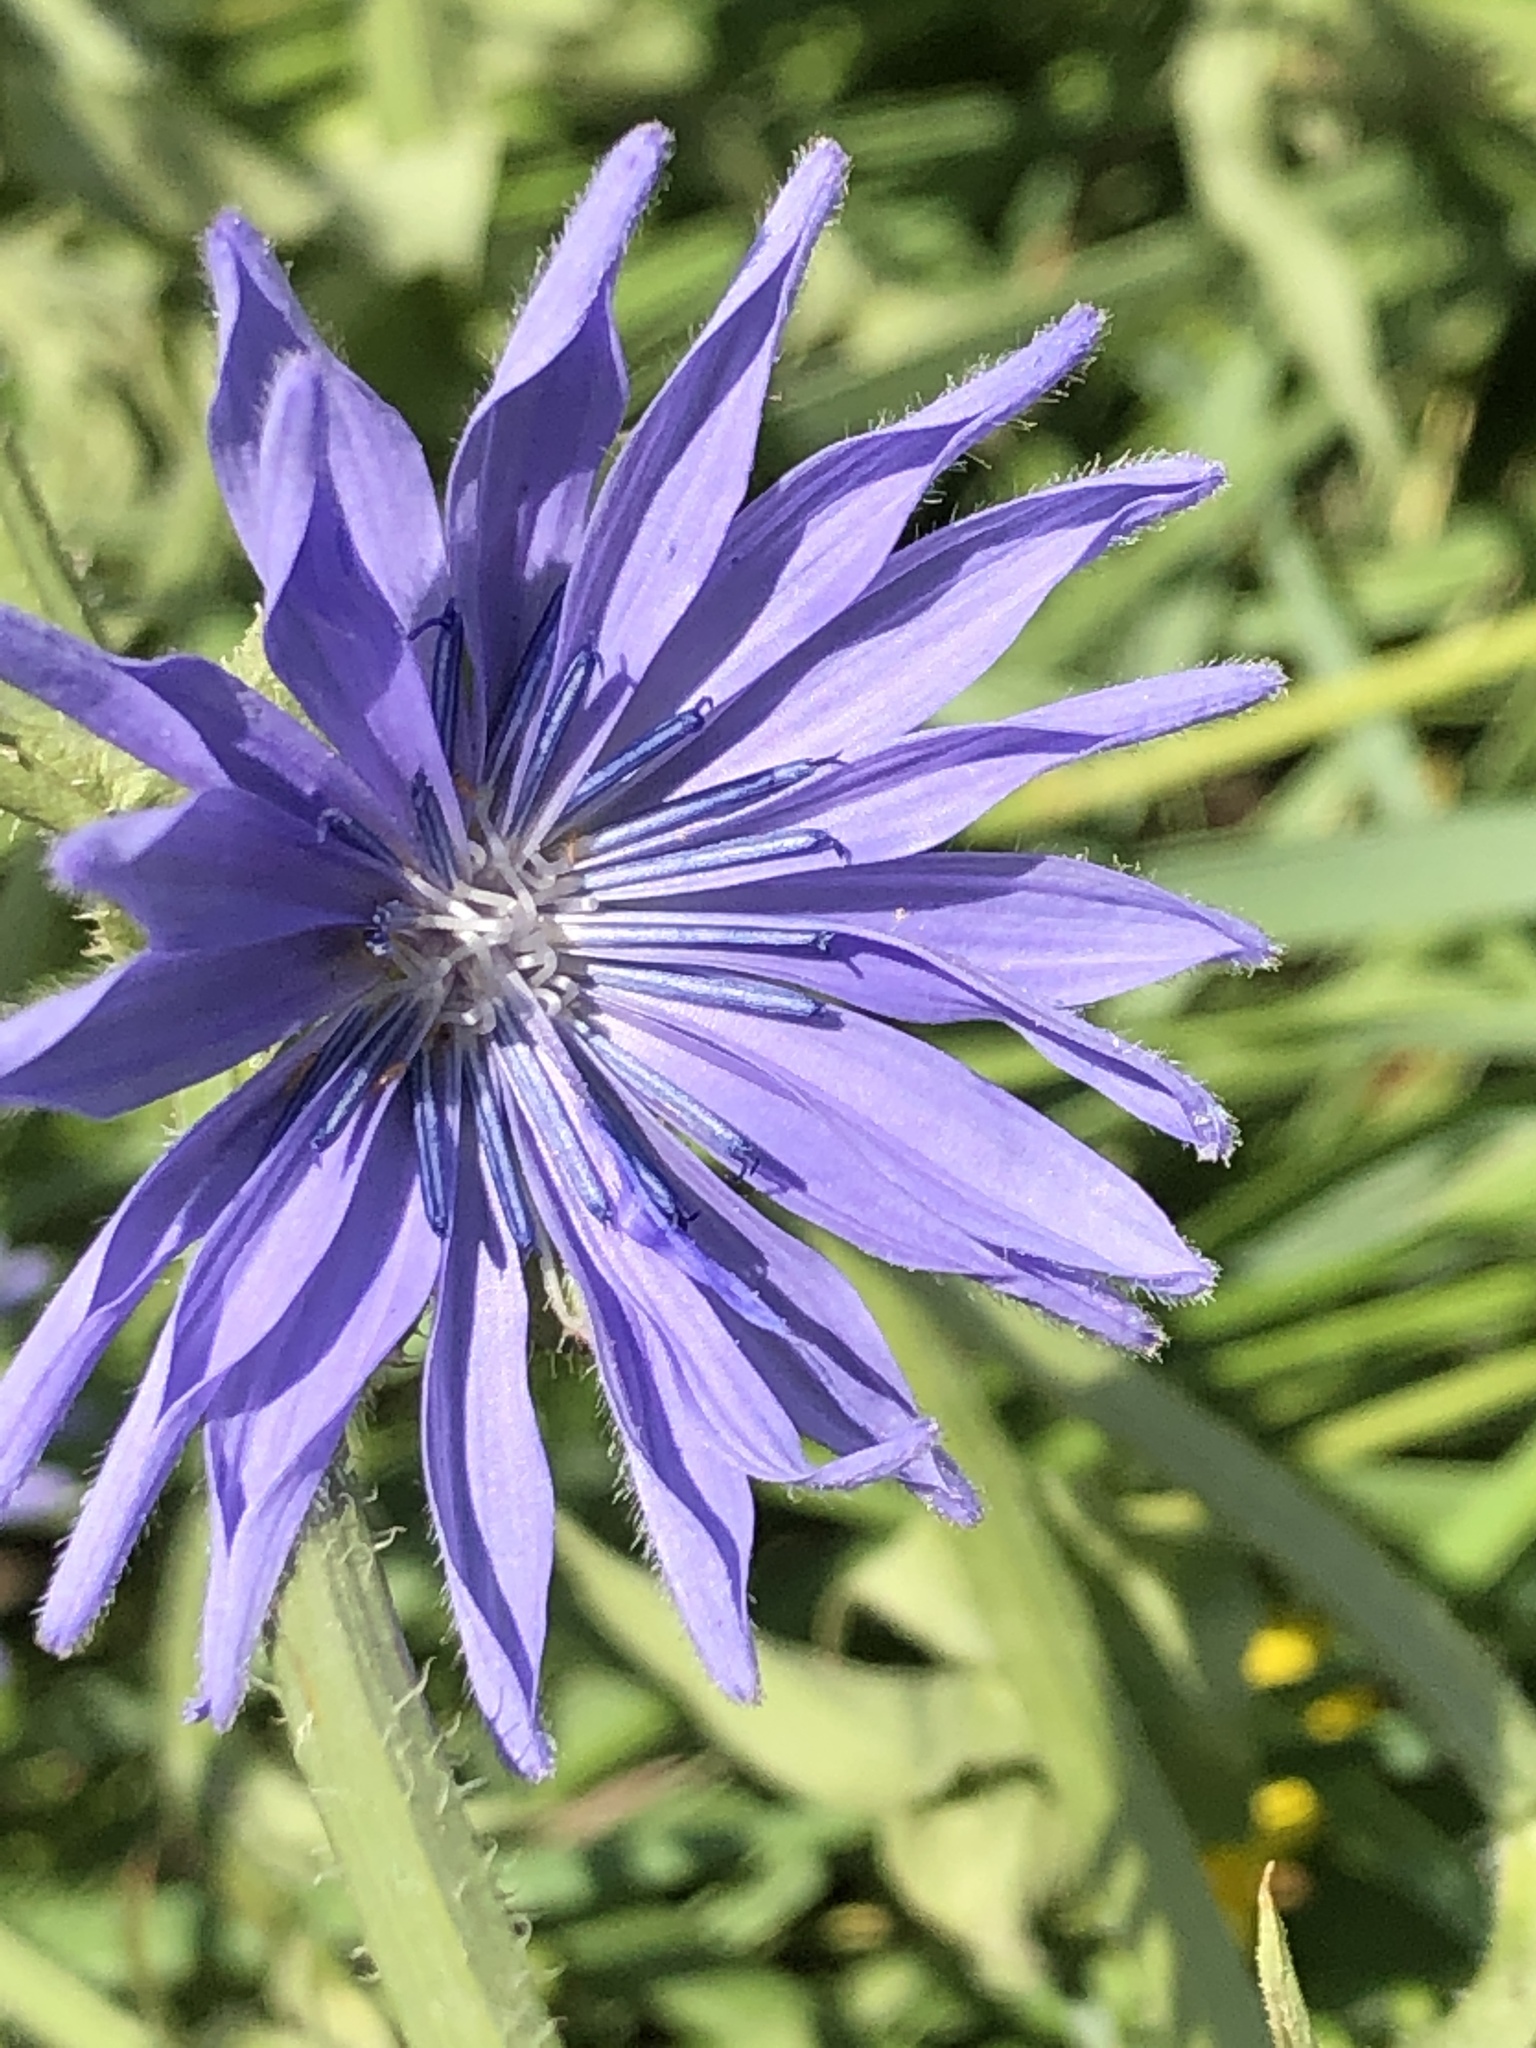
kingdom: Plantae
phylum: Tracheophyta
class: Magnoliopsida
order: Asterales
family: Asteraceae
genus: Cichorium
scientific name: Cichorium intybus
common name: Chicory
